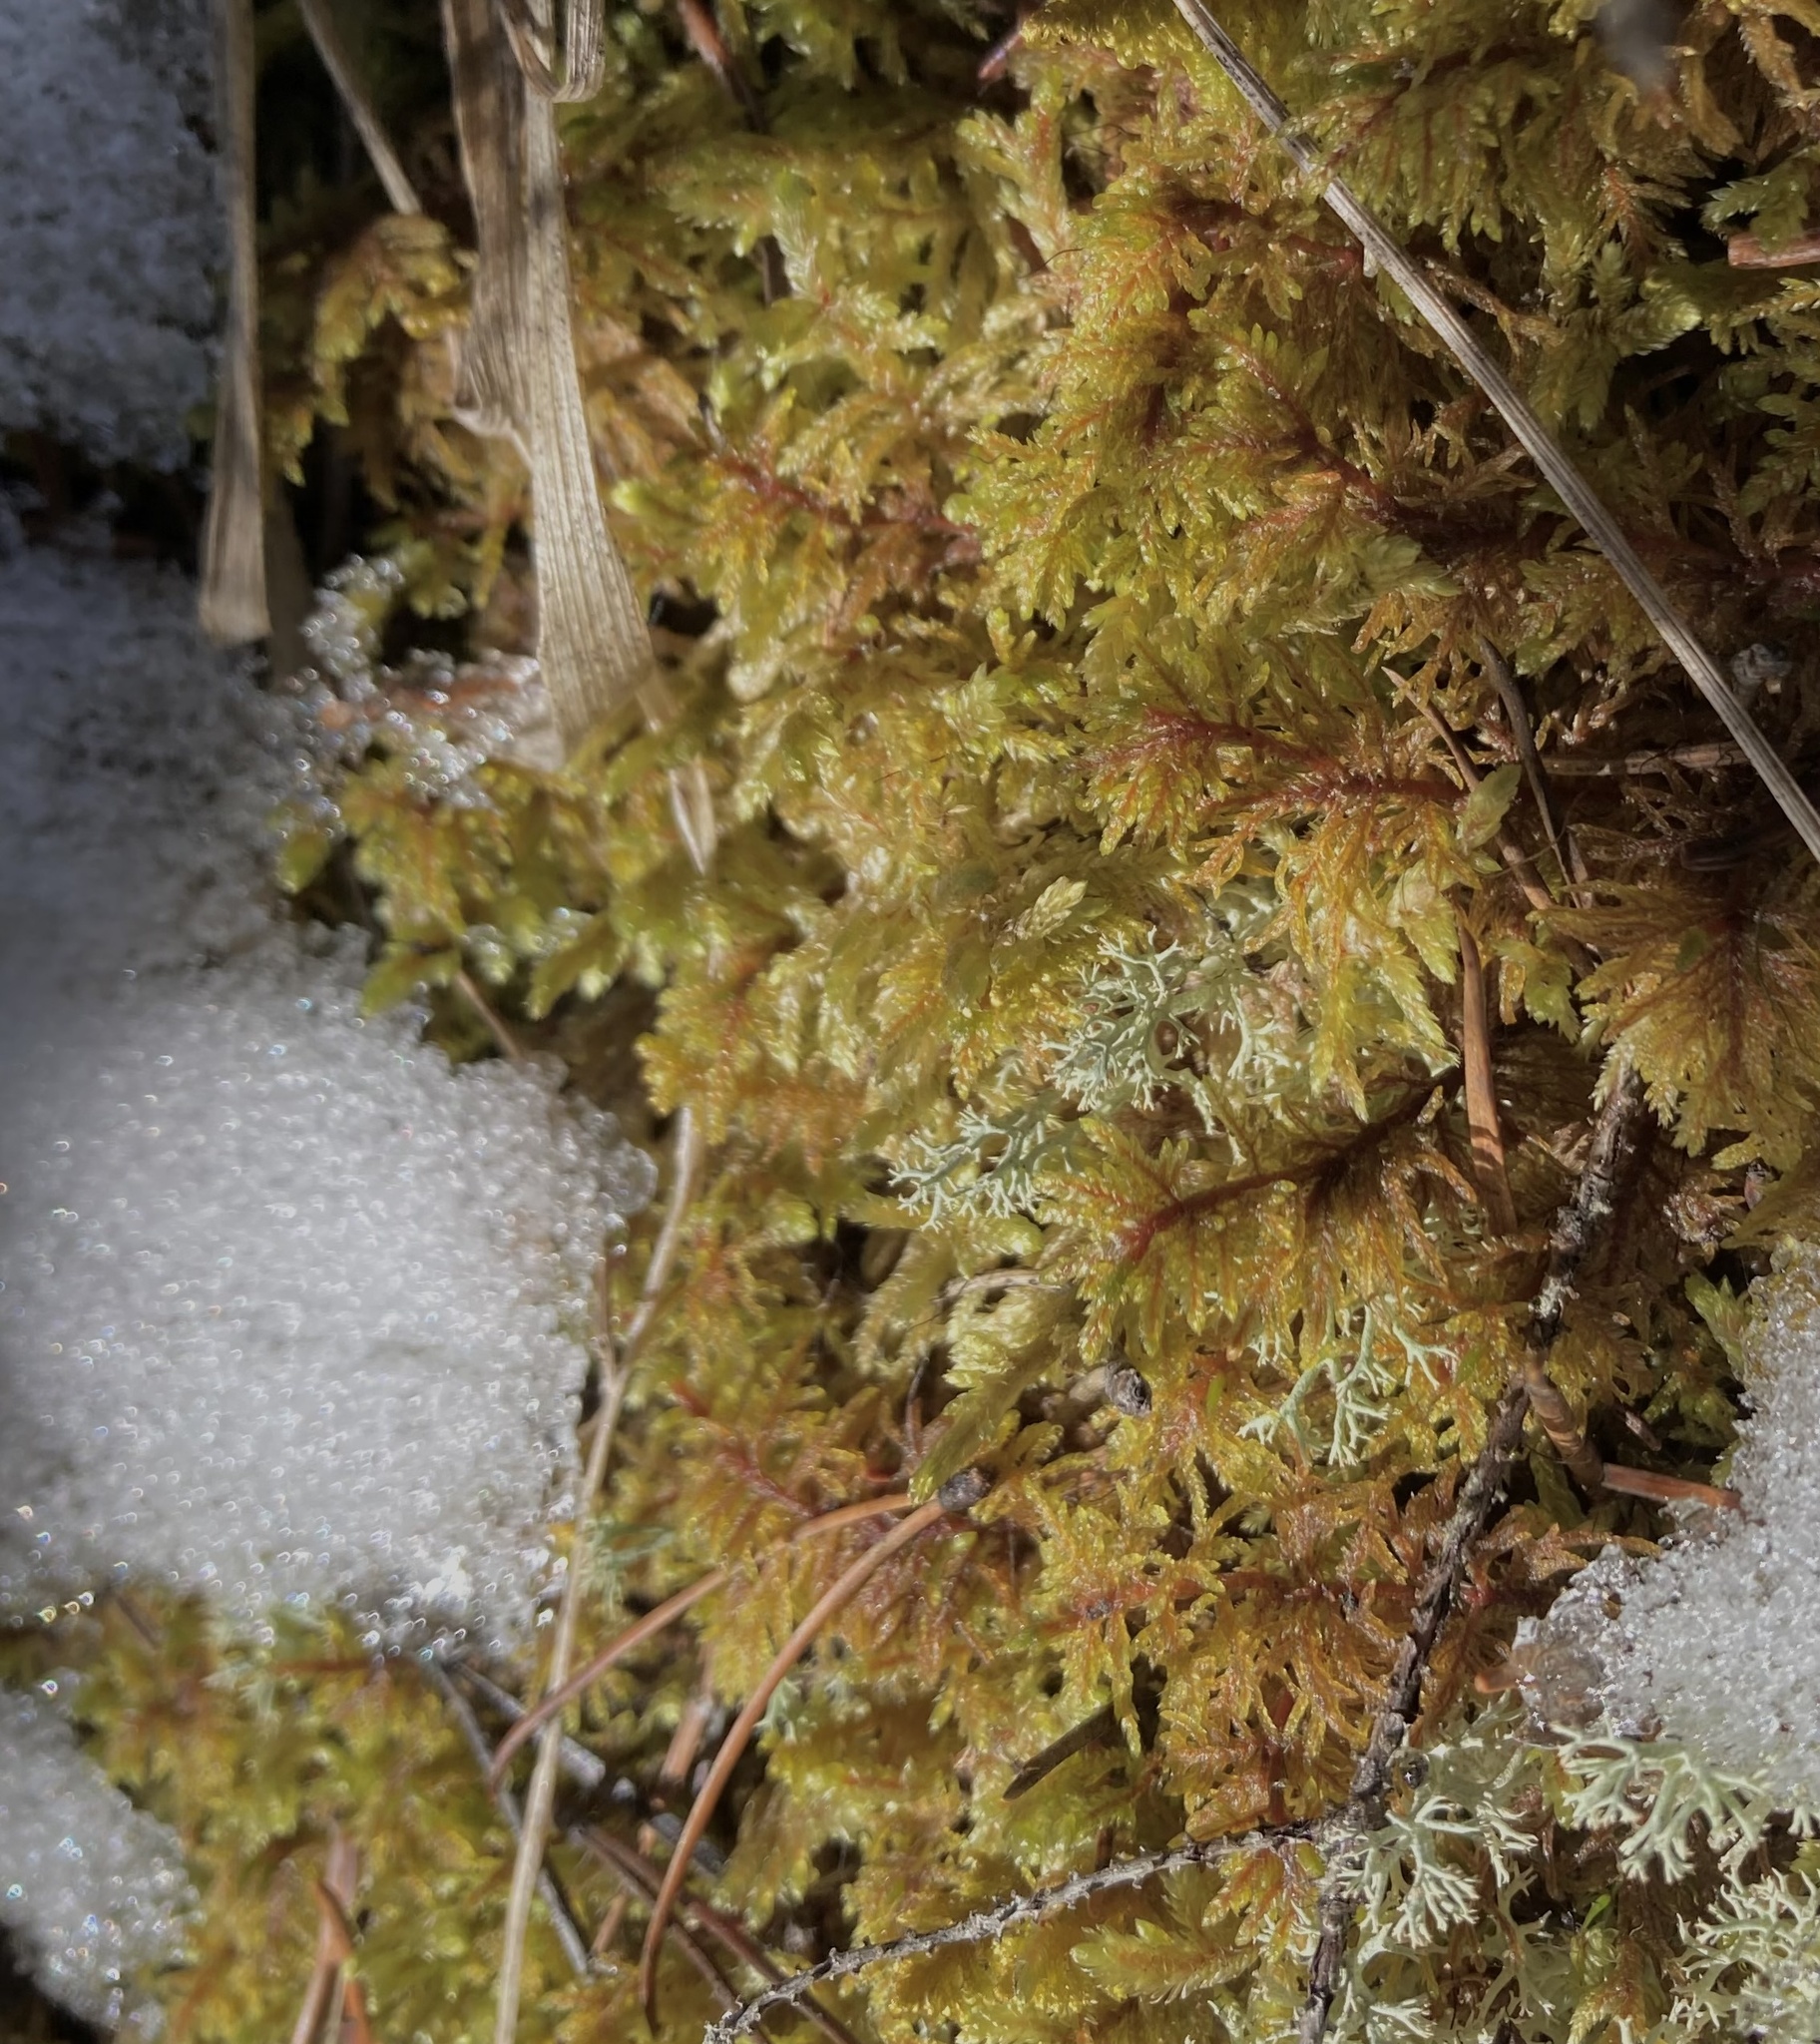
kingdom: Plantae
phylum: Bryophyta
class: Bryopsida
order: Hypnales
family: Hylocomiaceae
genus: Hylocomium
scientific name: Hylocomium splendens
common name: Stairstep moss
